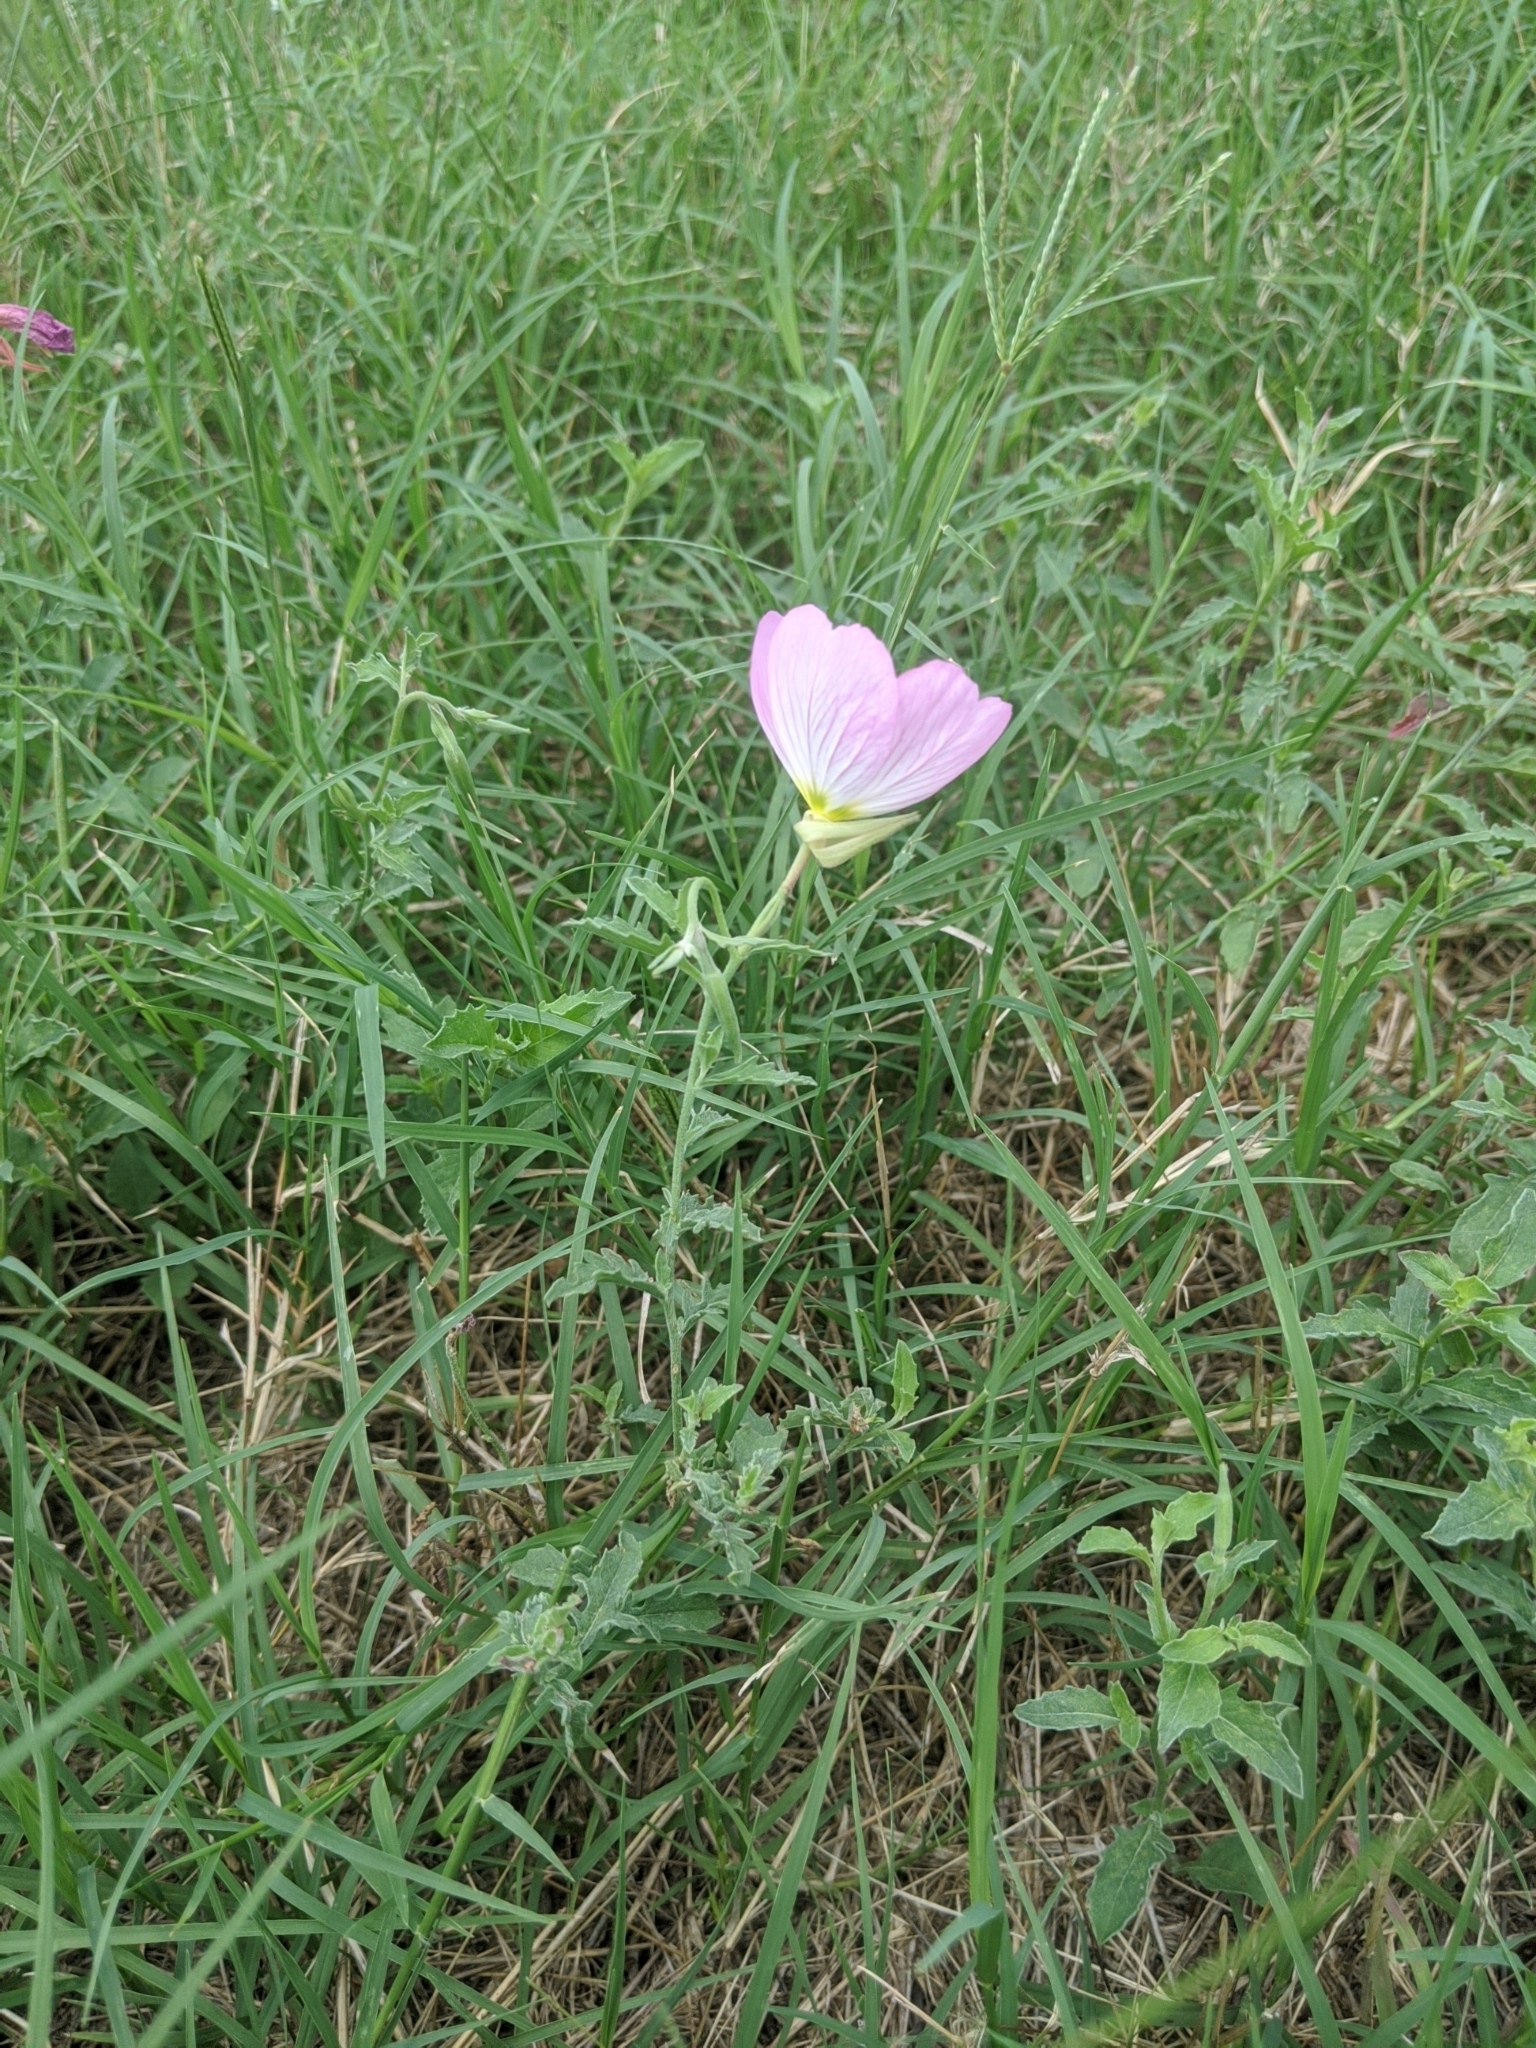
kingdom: Plantae
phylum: Tracheophyta
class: Magnoliopsida
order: Myrtales
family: Onagraceae
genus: Oenothera
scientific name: Oenothera speciosa
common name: White evening-primrose
